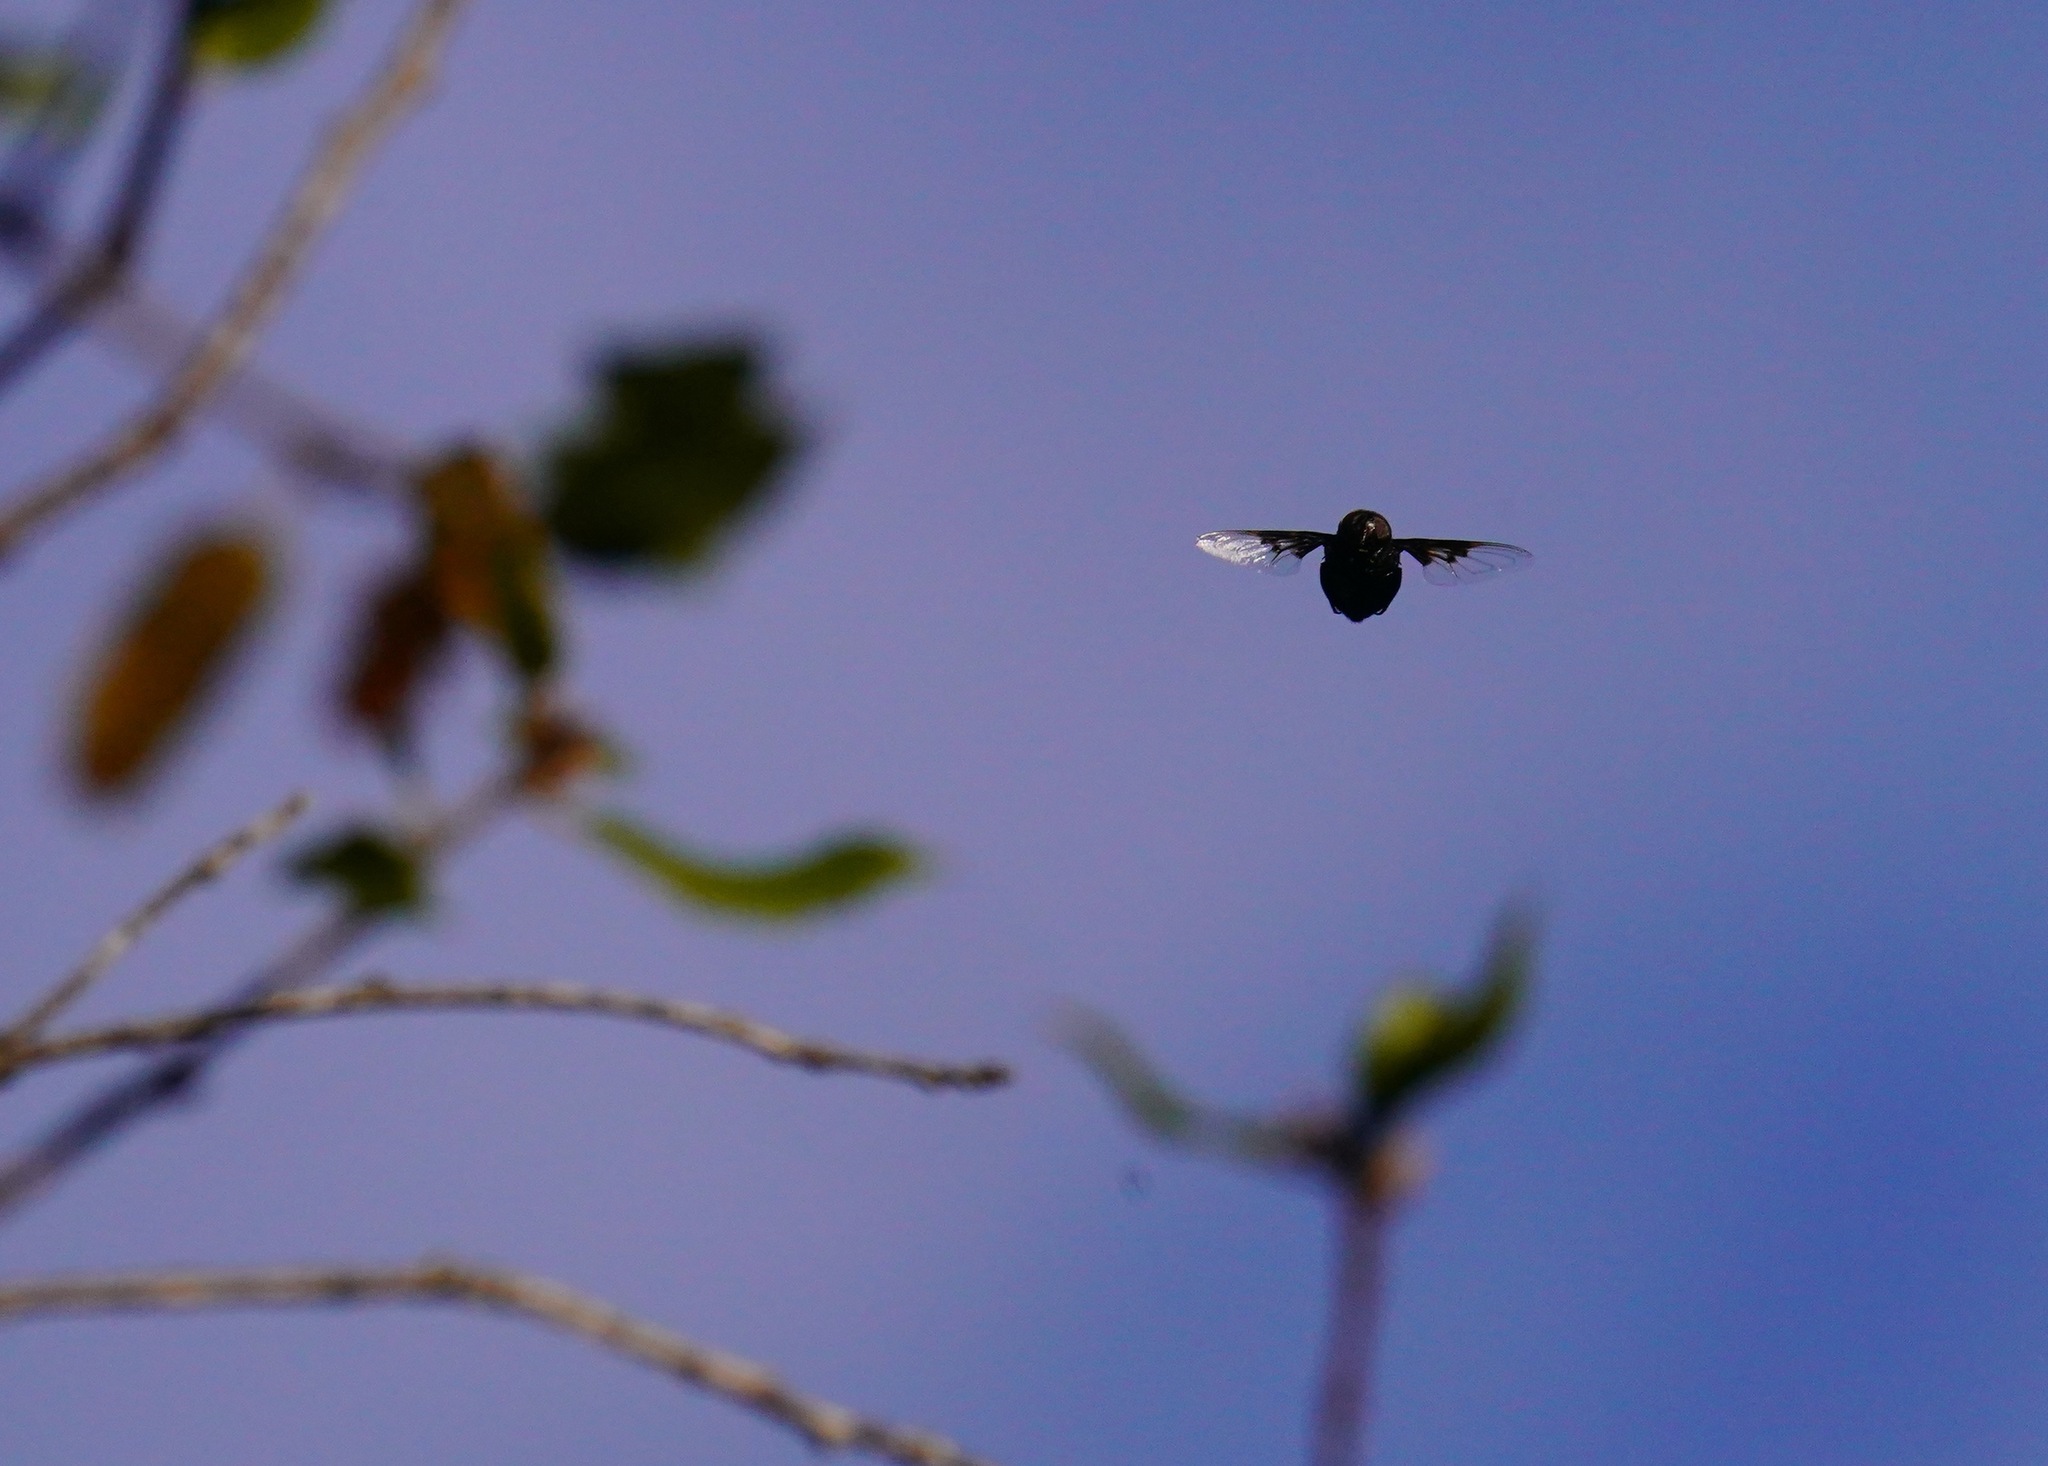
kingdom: Animalia
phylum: Arthropoda
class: Insecta
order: Diptera
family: Syrphidae
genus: Copestylum
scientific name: Copestylum
